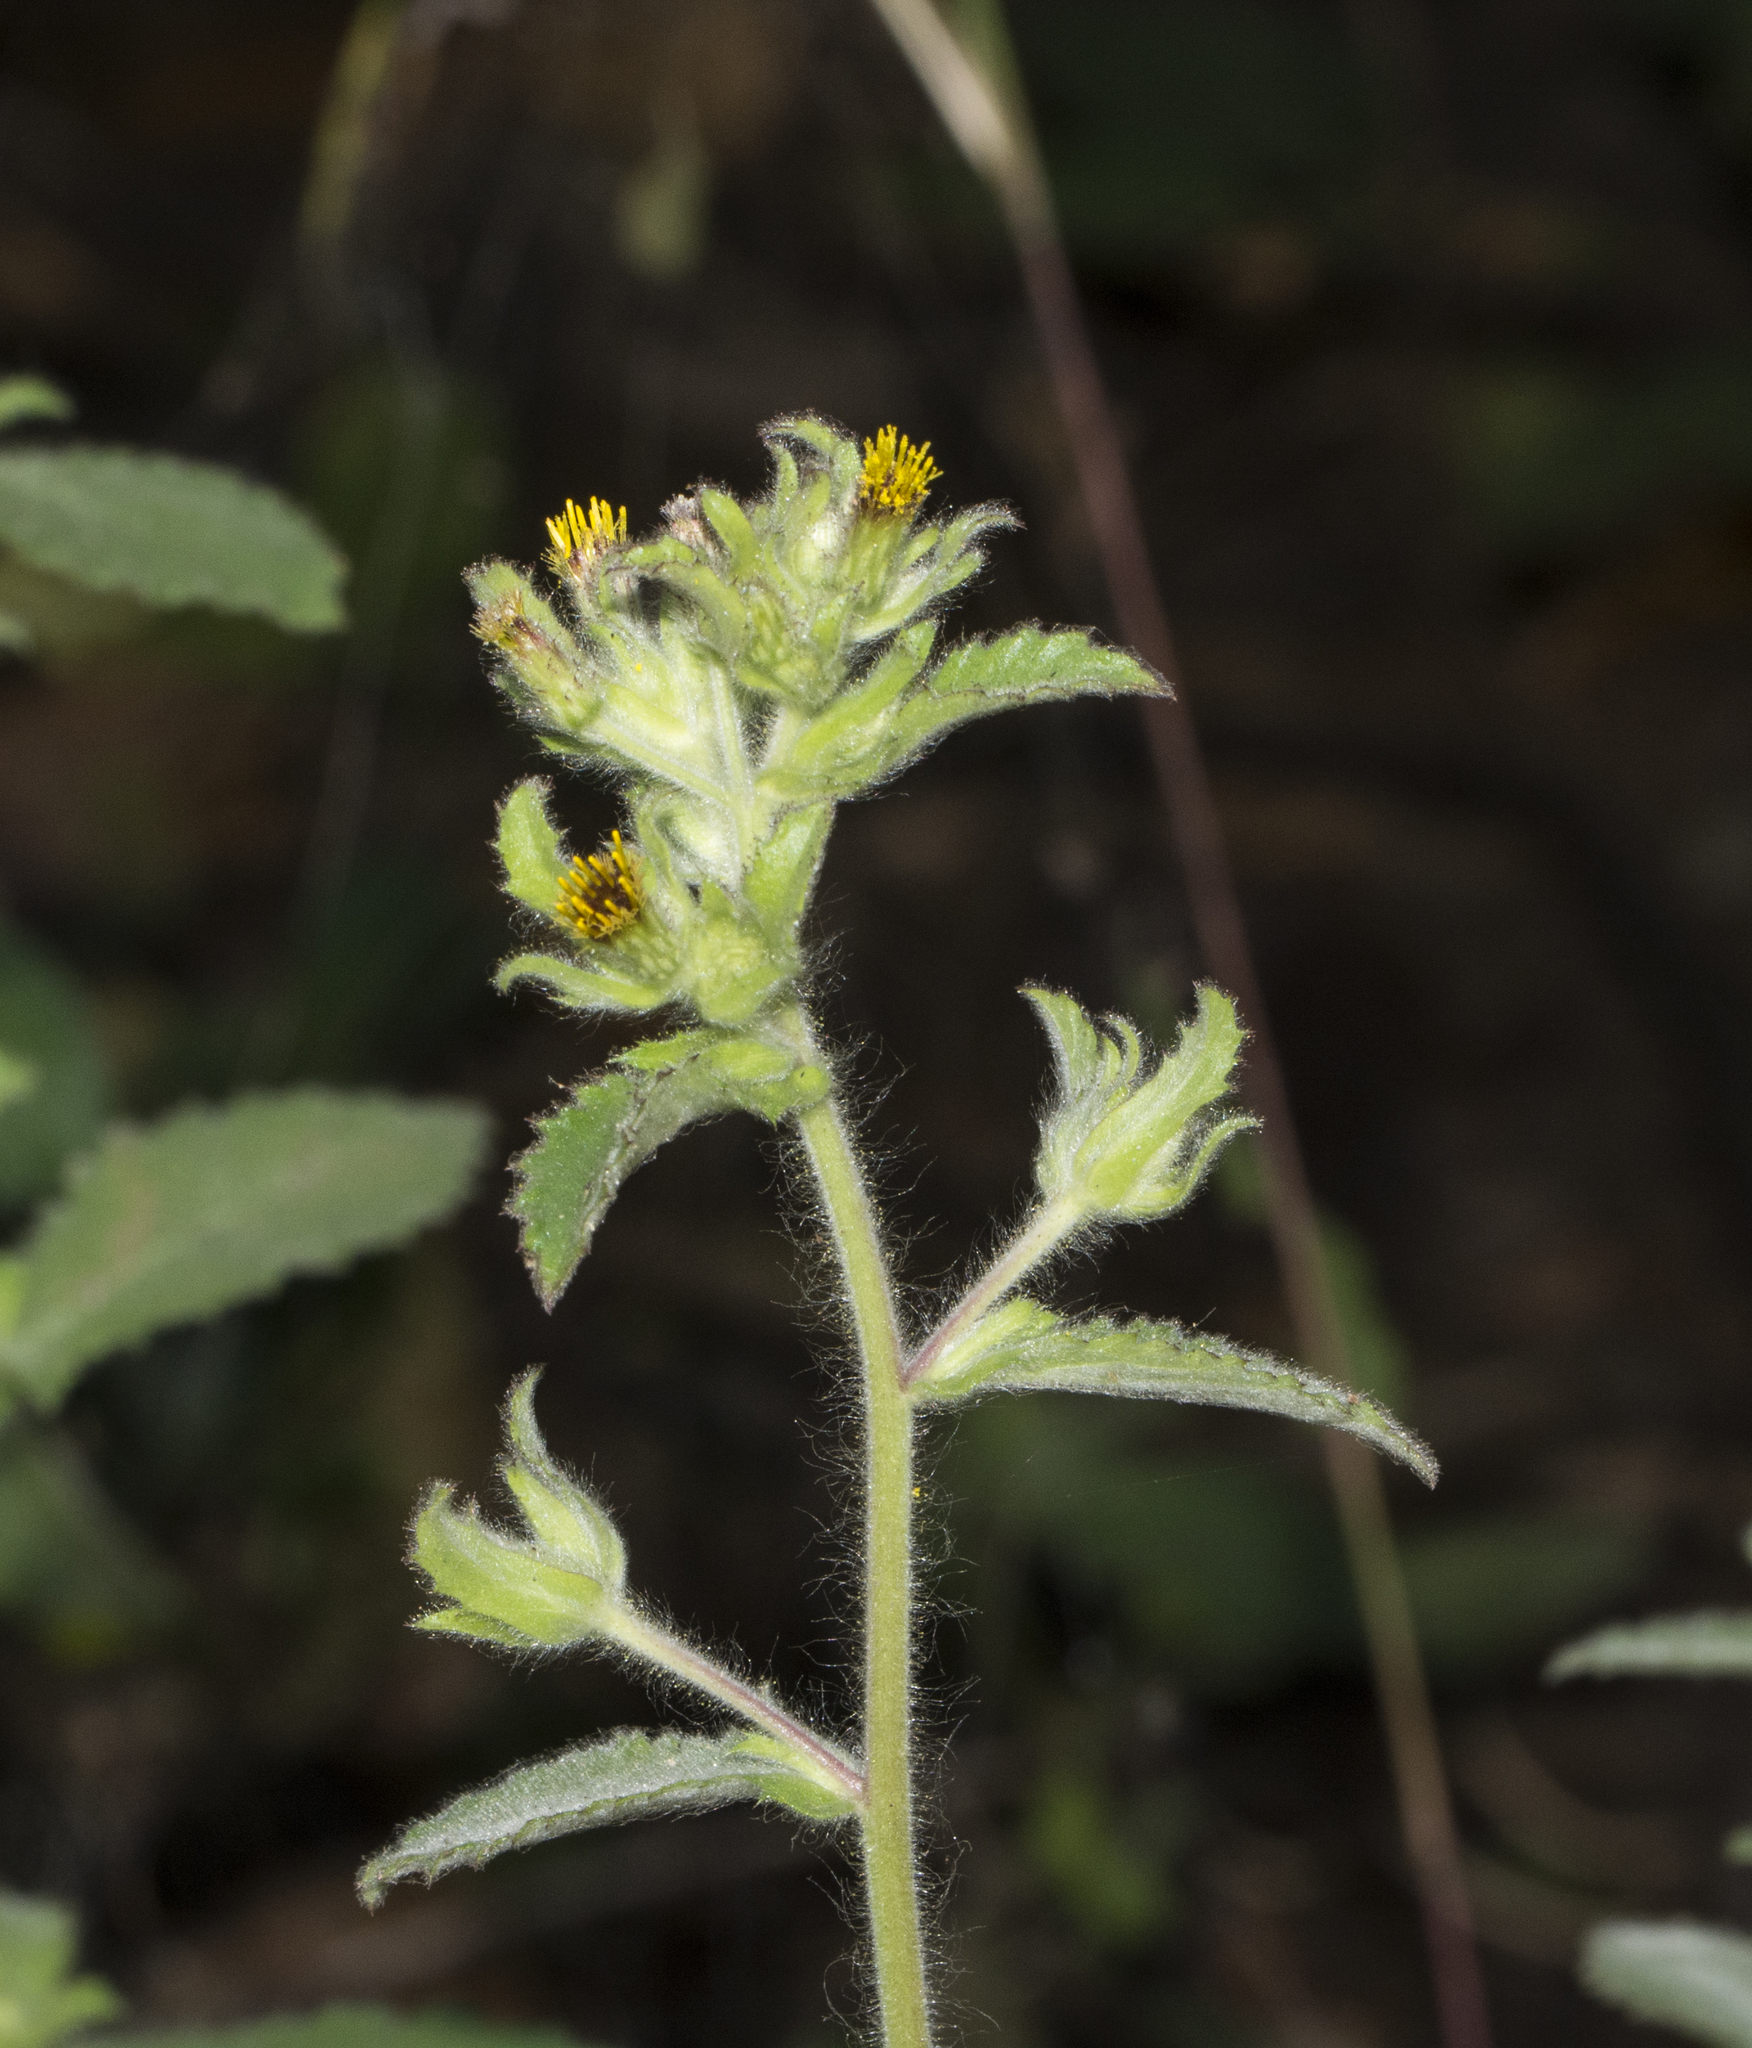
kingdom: Plantae
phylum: Tracheophyta
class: Magnoliopsida
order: Asterales
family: Asteraceae
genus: Blumea
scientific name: Blumea belangeriana
